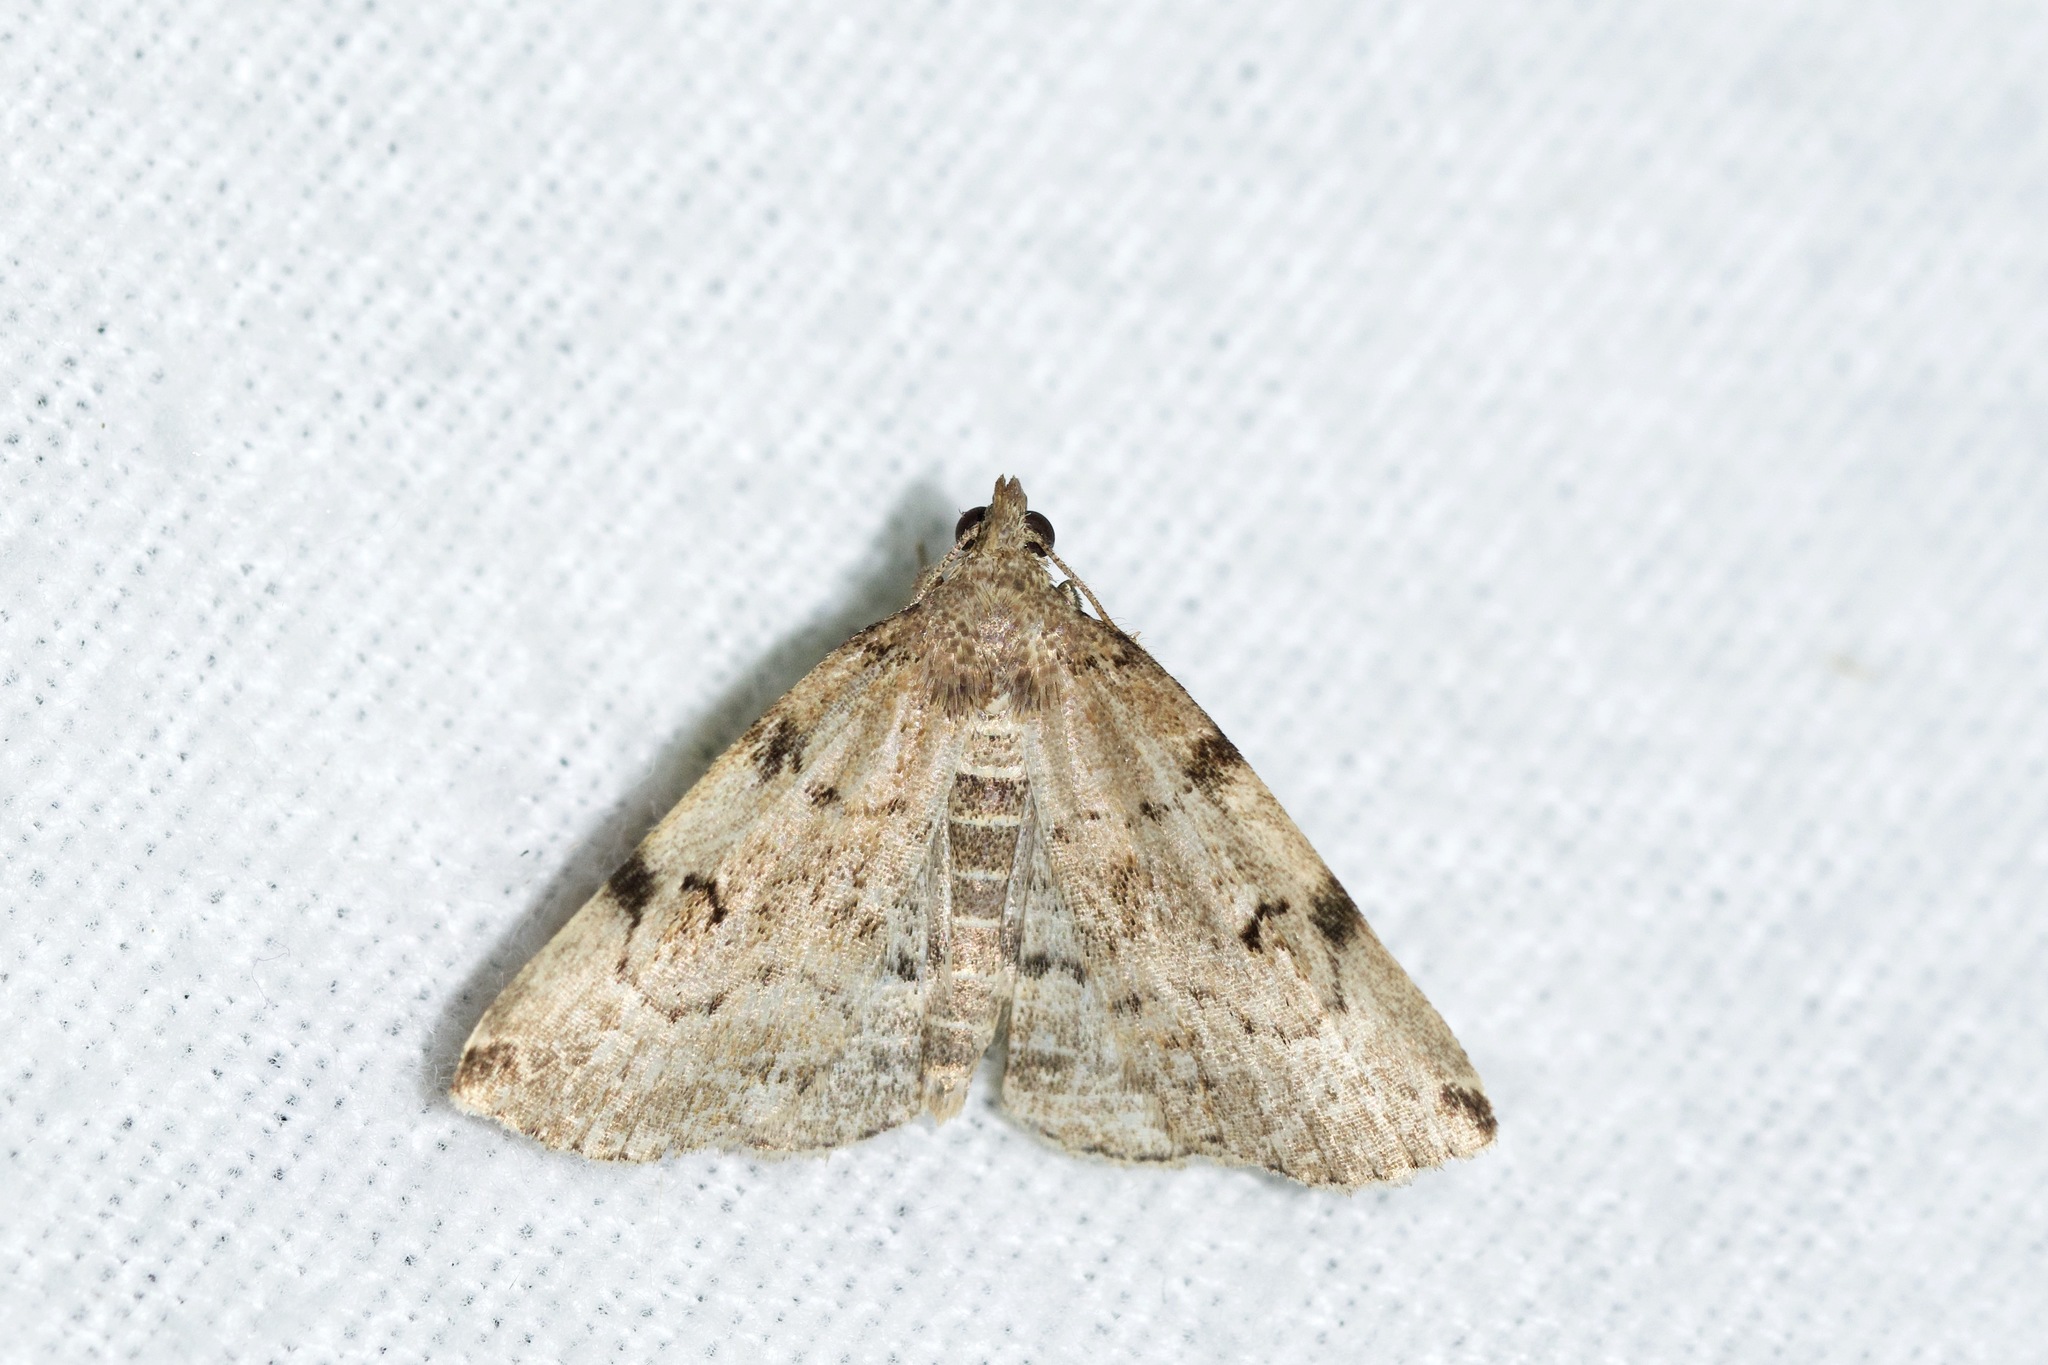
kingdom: Animalia
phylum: Arthropoda
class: Insecta
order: Lepidoptera
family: Erebidae
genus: Zanclognatha
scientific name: Zanclognatha lituralis
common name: Lettered fan-foot
